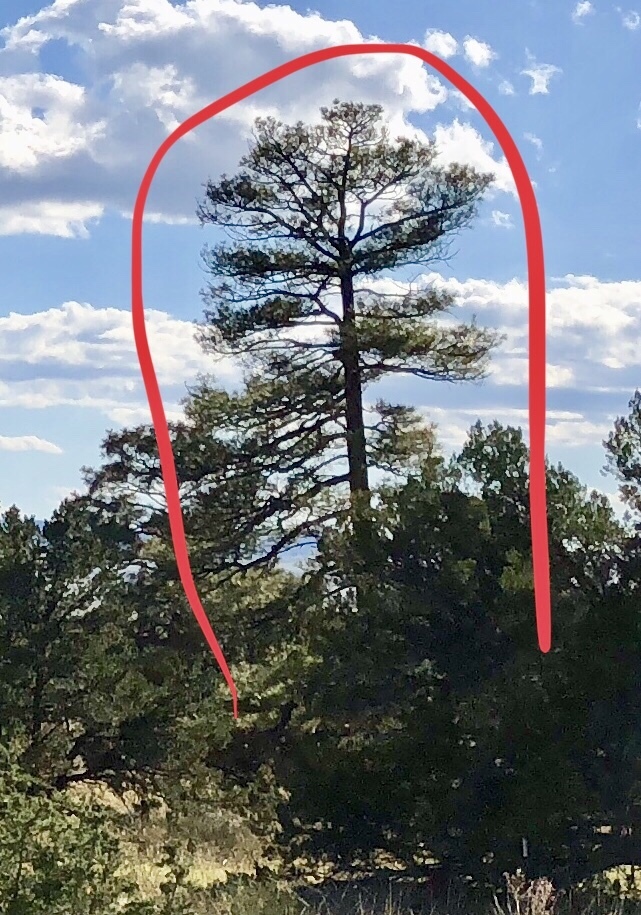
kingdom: Plantae
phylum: Tracheophyta
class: Pinopsida
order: Pinales
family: Pinaceae
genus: Pinus
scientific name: Pinus ponderosa
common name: Western yellow-pine
